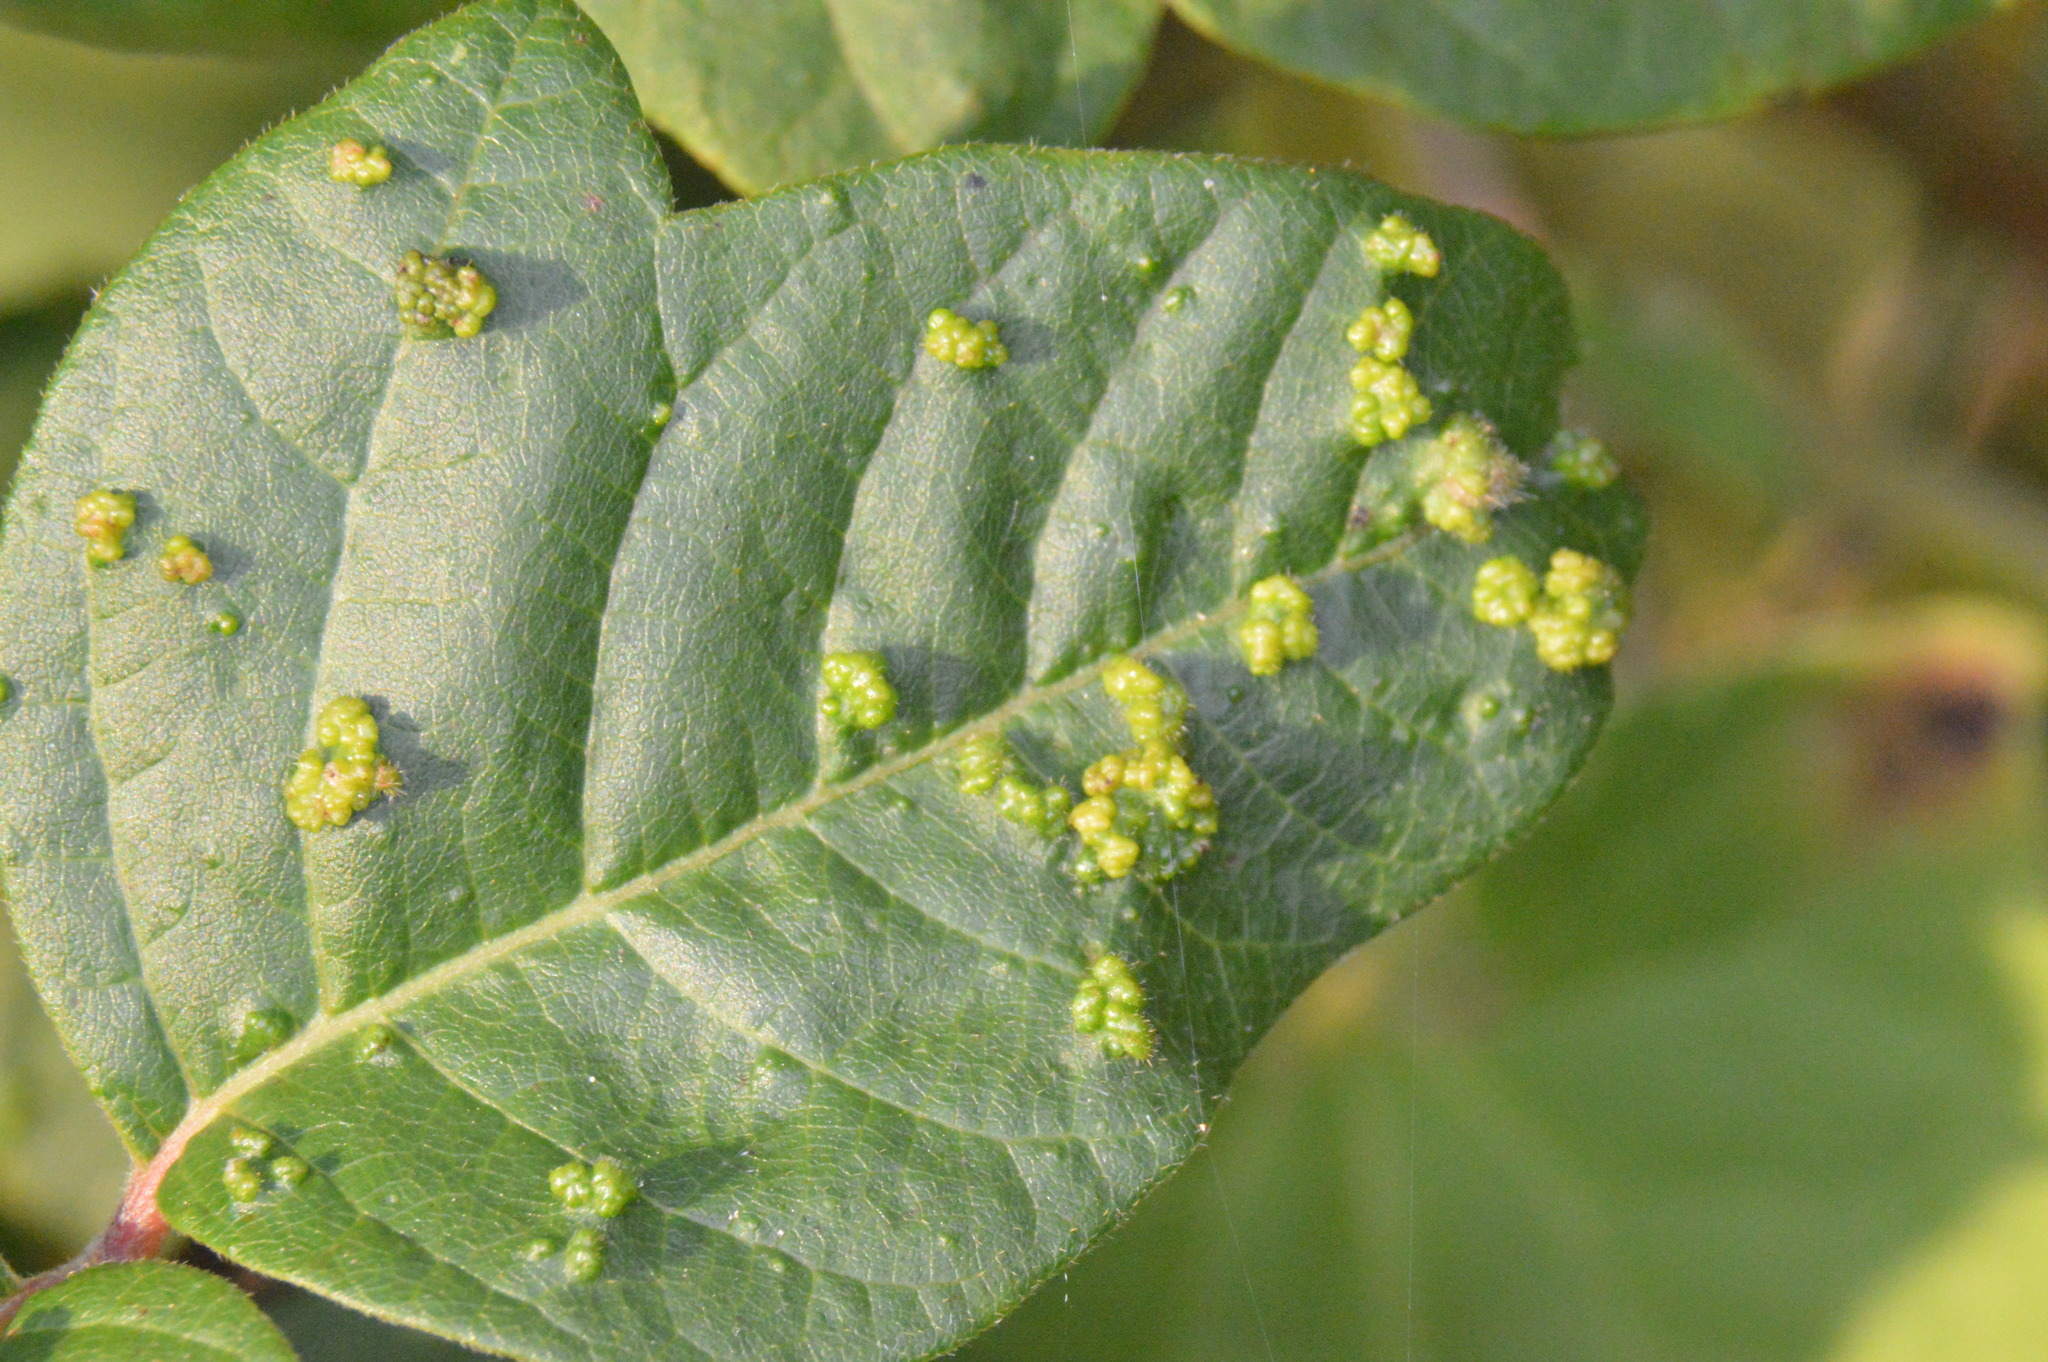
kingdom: Animalia
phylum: Arthropoda
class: Arachnida
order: Trombidiformes
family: Eriophyidae
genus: Aculops
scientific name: Aculops
